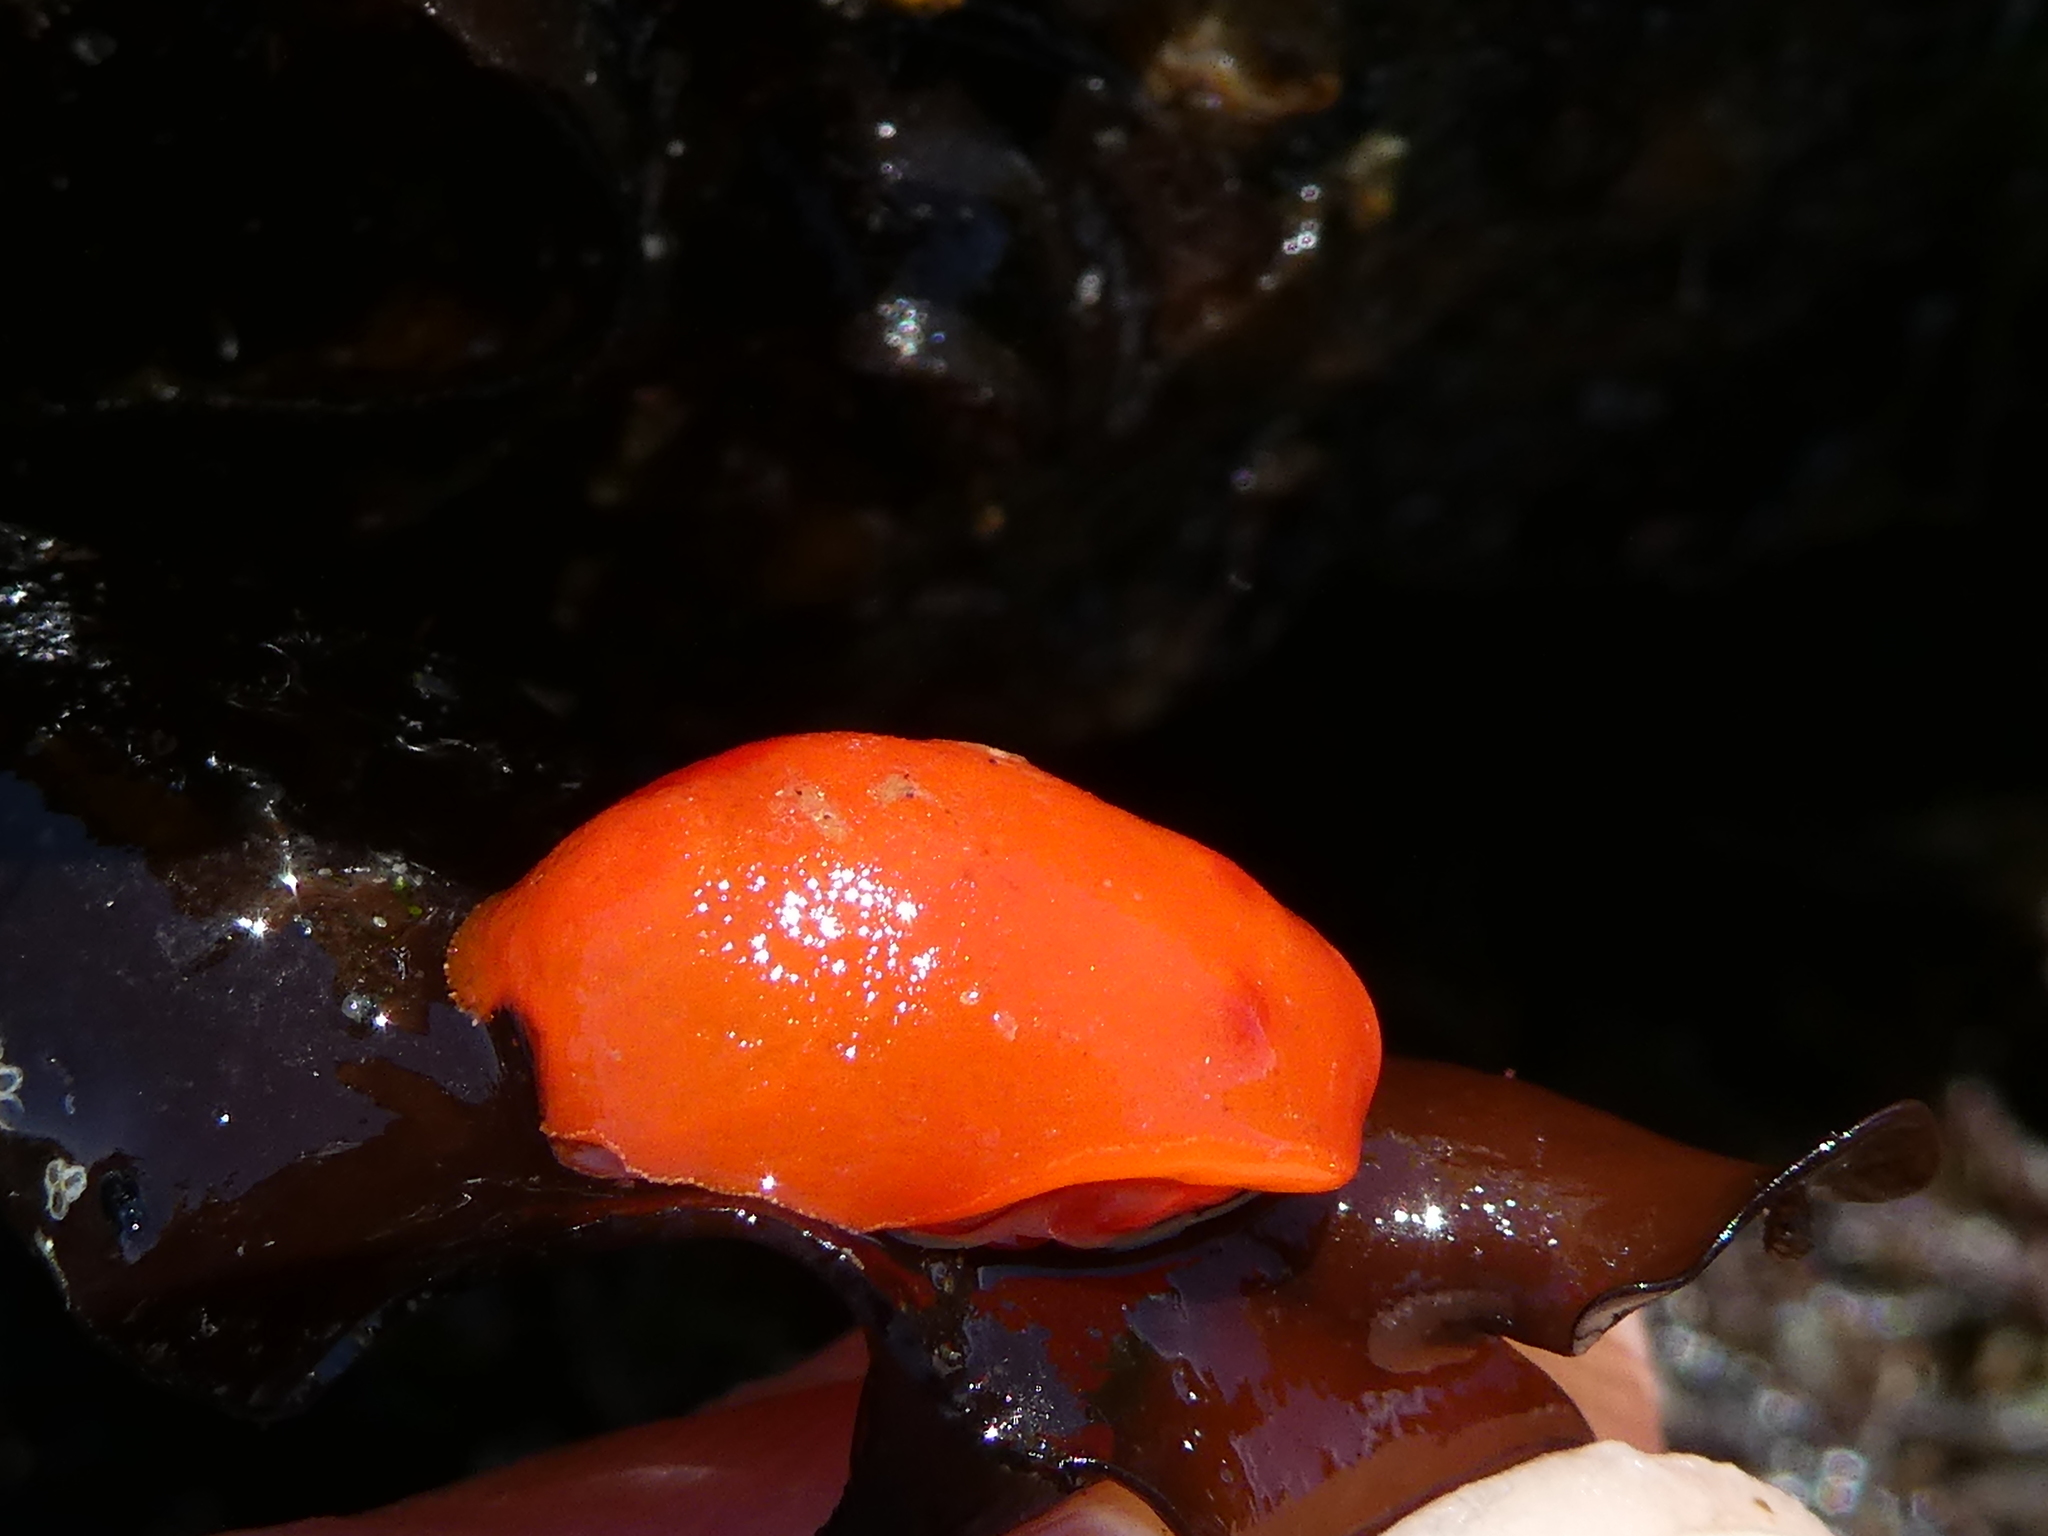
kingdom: Animalia
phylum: Mollusca
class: Gastropoda
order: Nudibranchia
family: Discodorididae
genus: Rostanga
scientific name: Rostanga pulchra
